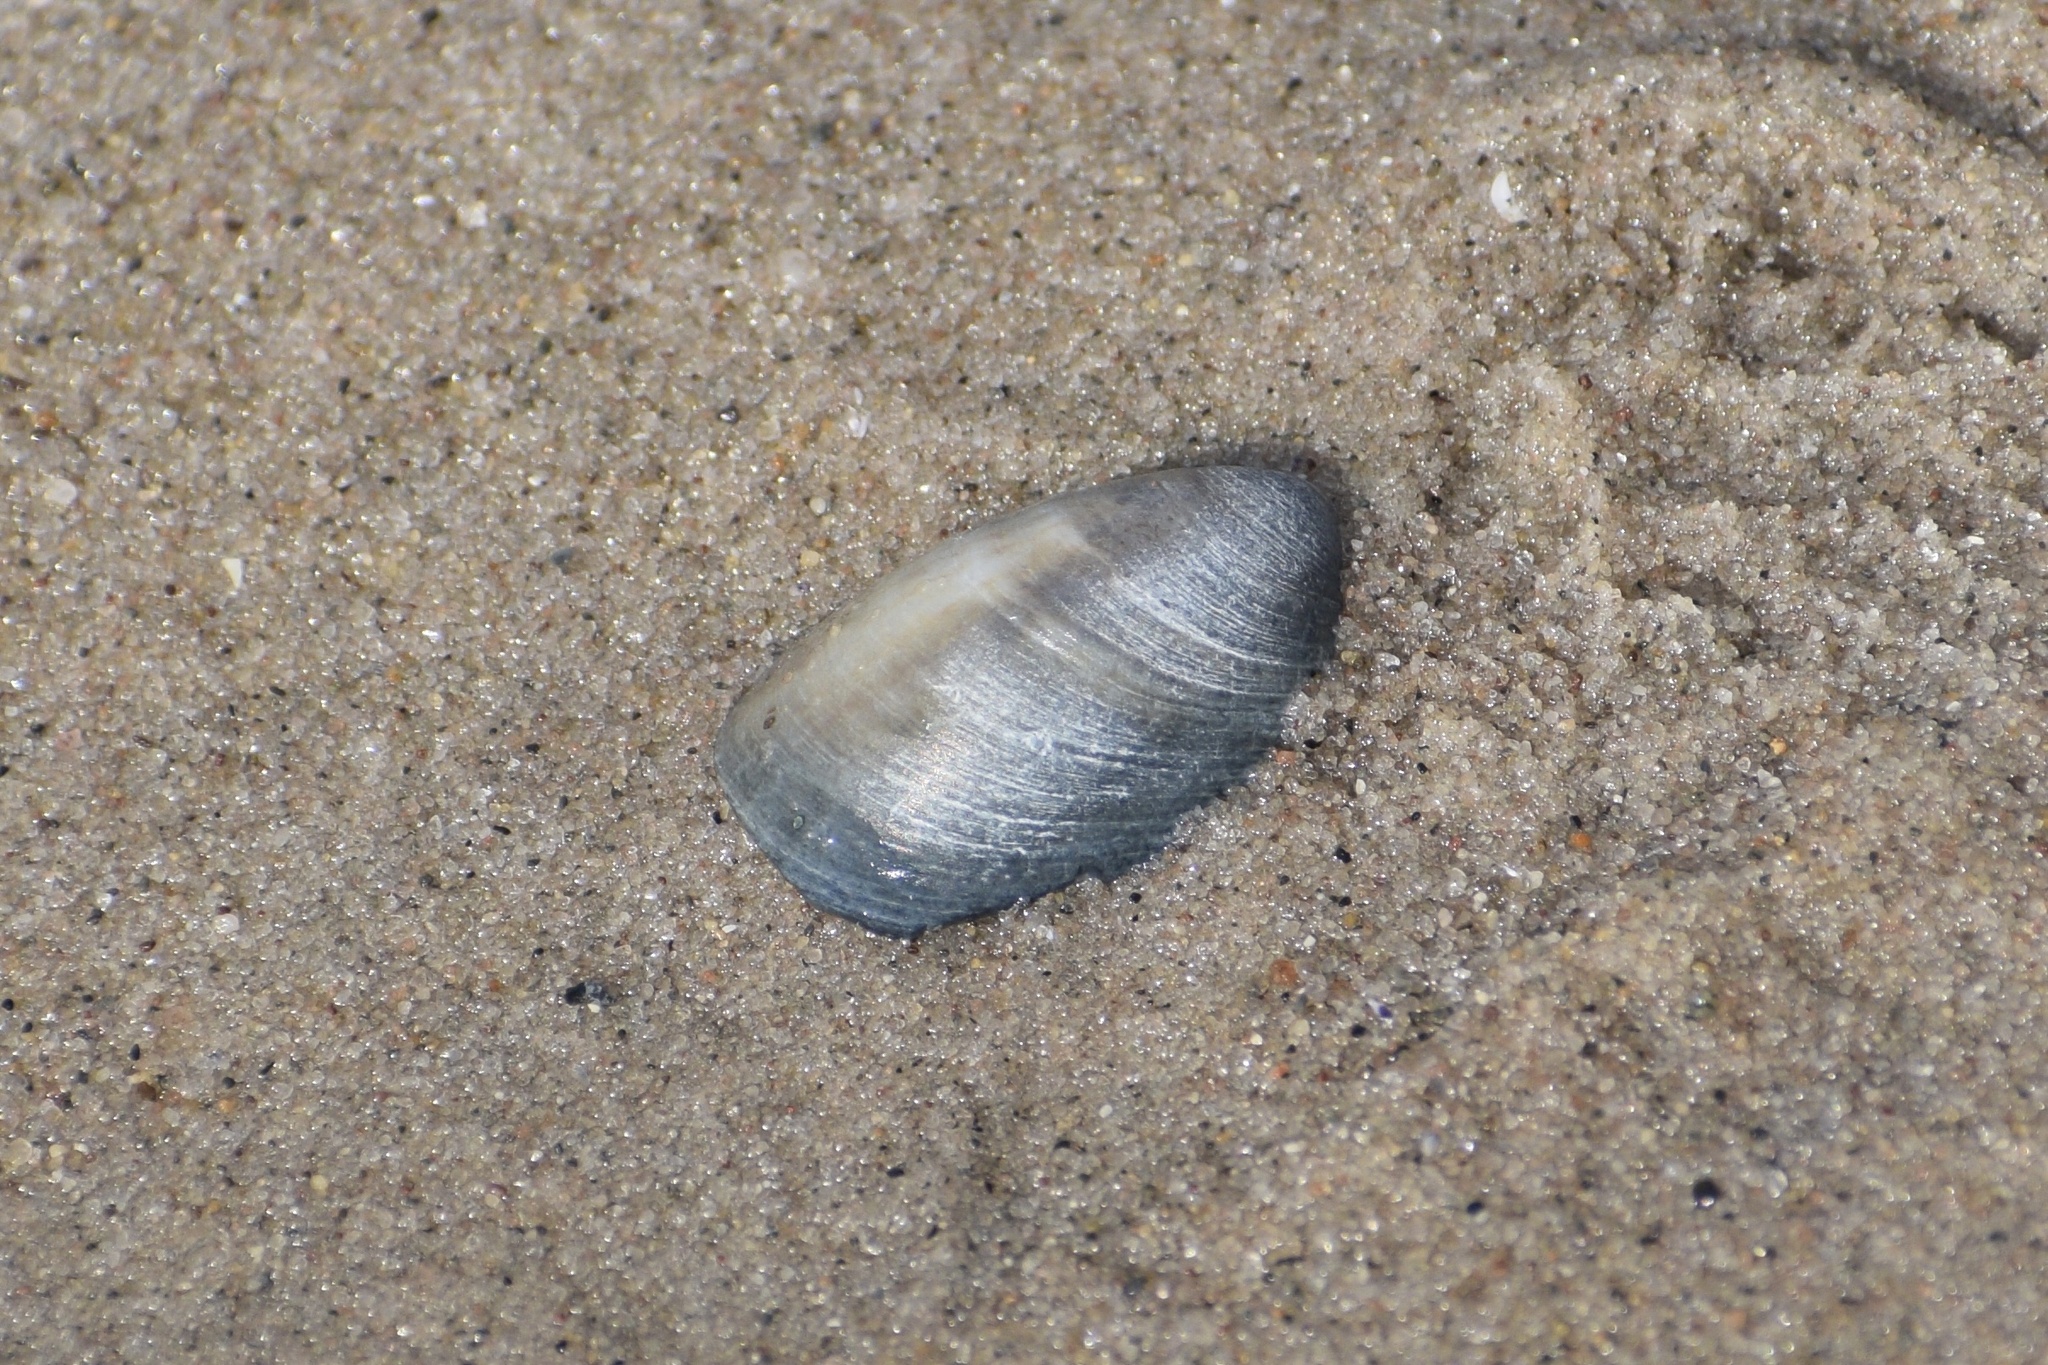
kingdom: Animalia
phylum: Mollusca
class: Gastropoda
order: Littorinimorpha
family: Calyptraeidae
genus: Crepidula
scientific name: Crepidula fornicata
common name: Slipper limpet
